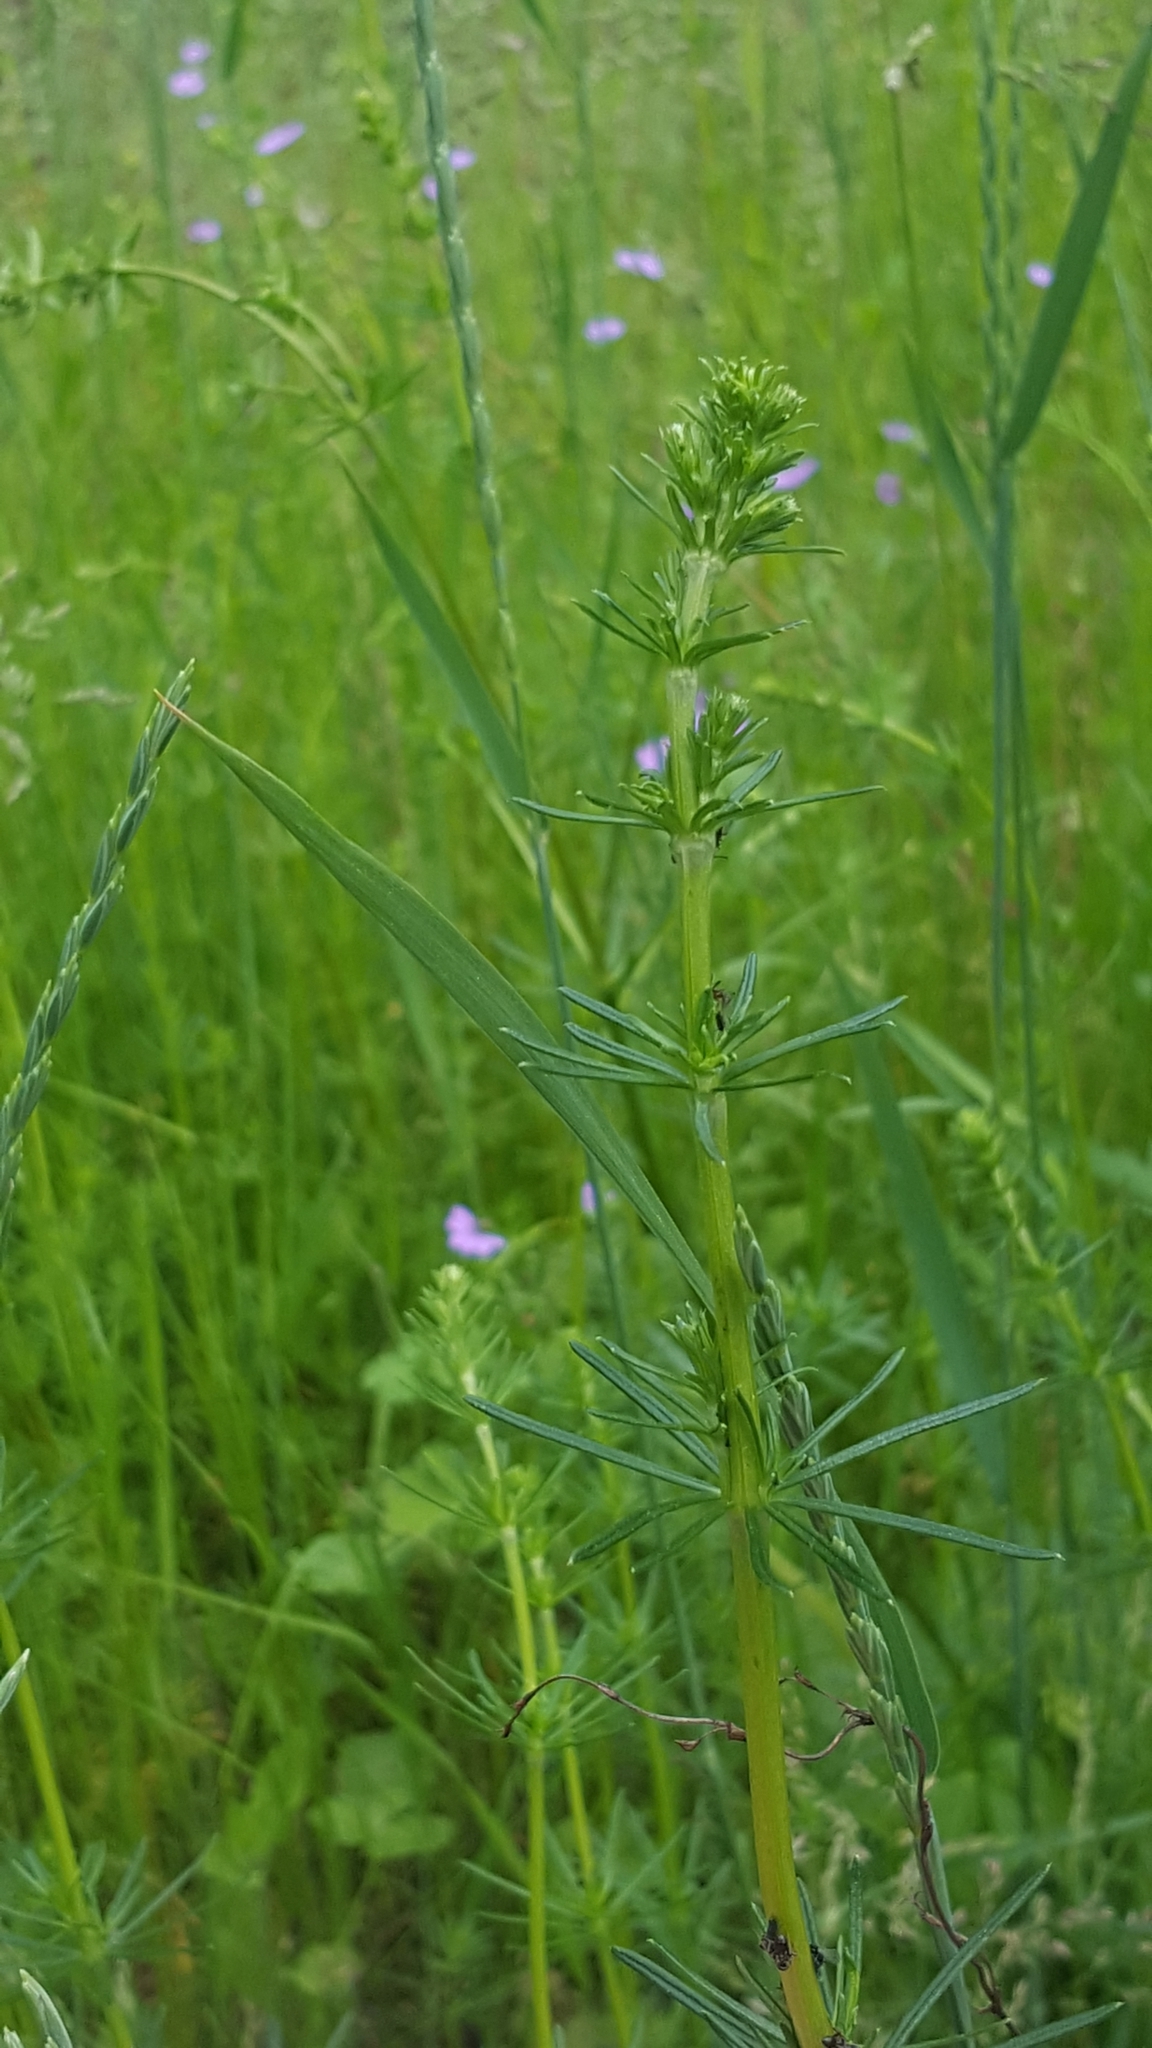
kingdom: Plantae
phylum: Tracheophyta
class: Magnoliopsida
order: Gentianales
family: Rubiaceae
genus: Galium
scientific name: Galium verum
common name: Lady's bedstraw
